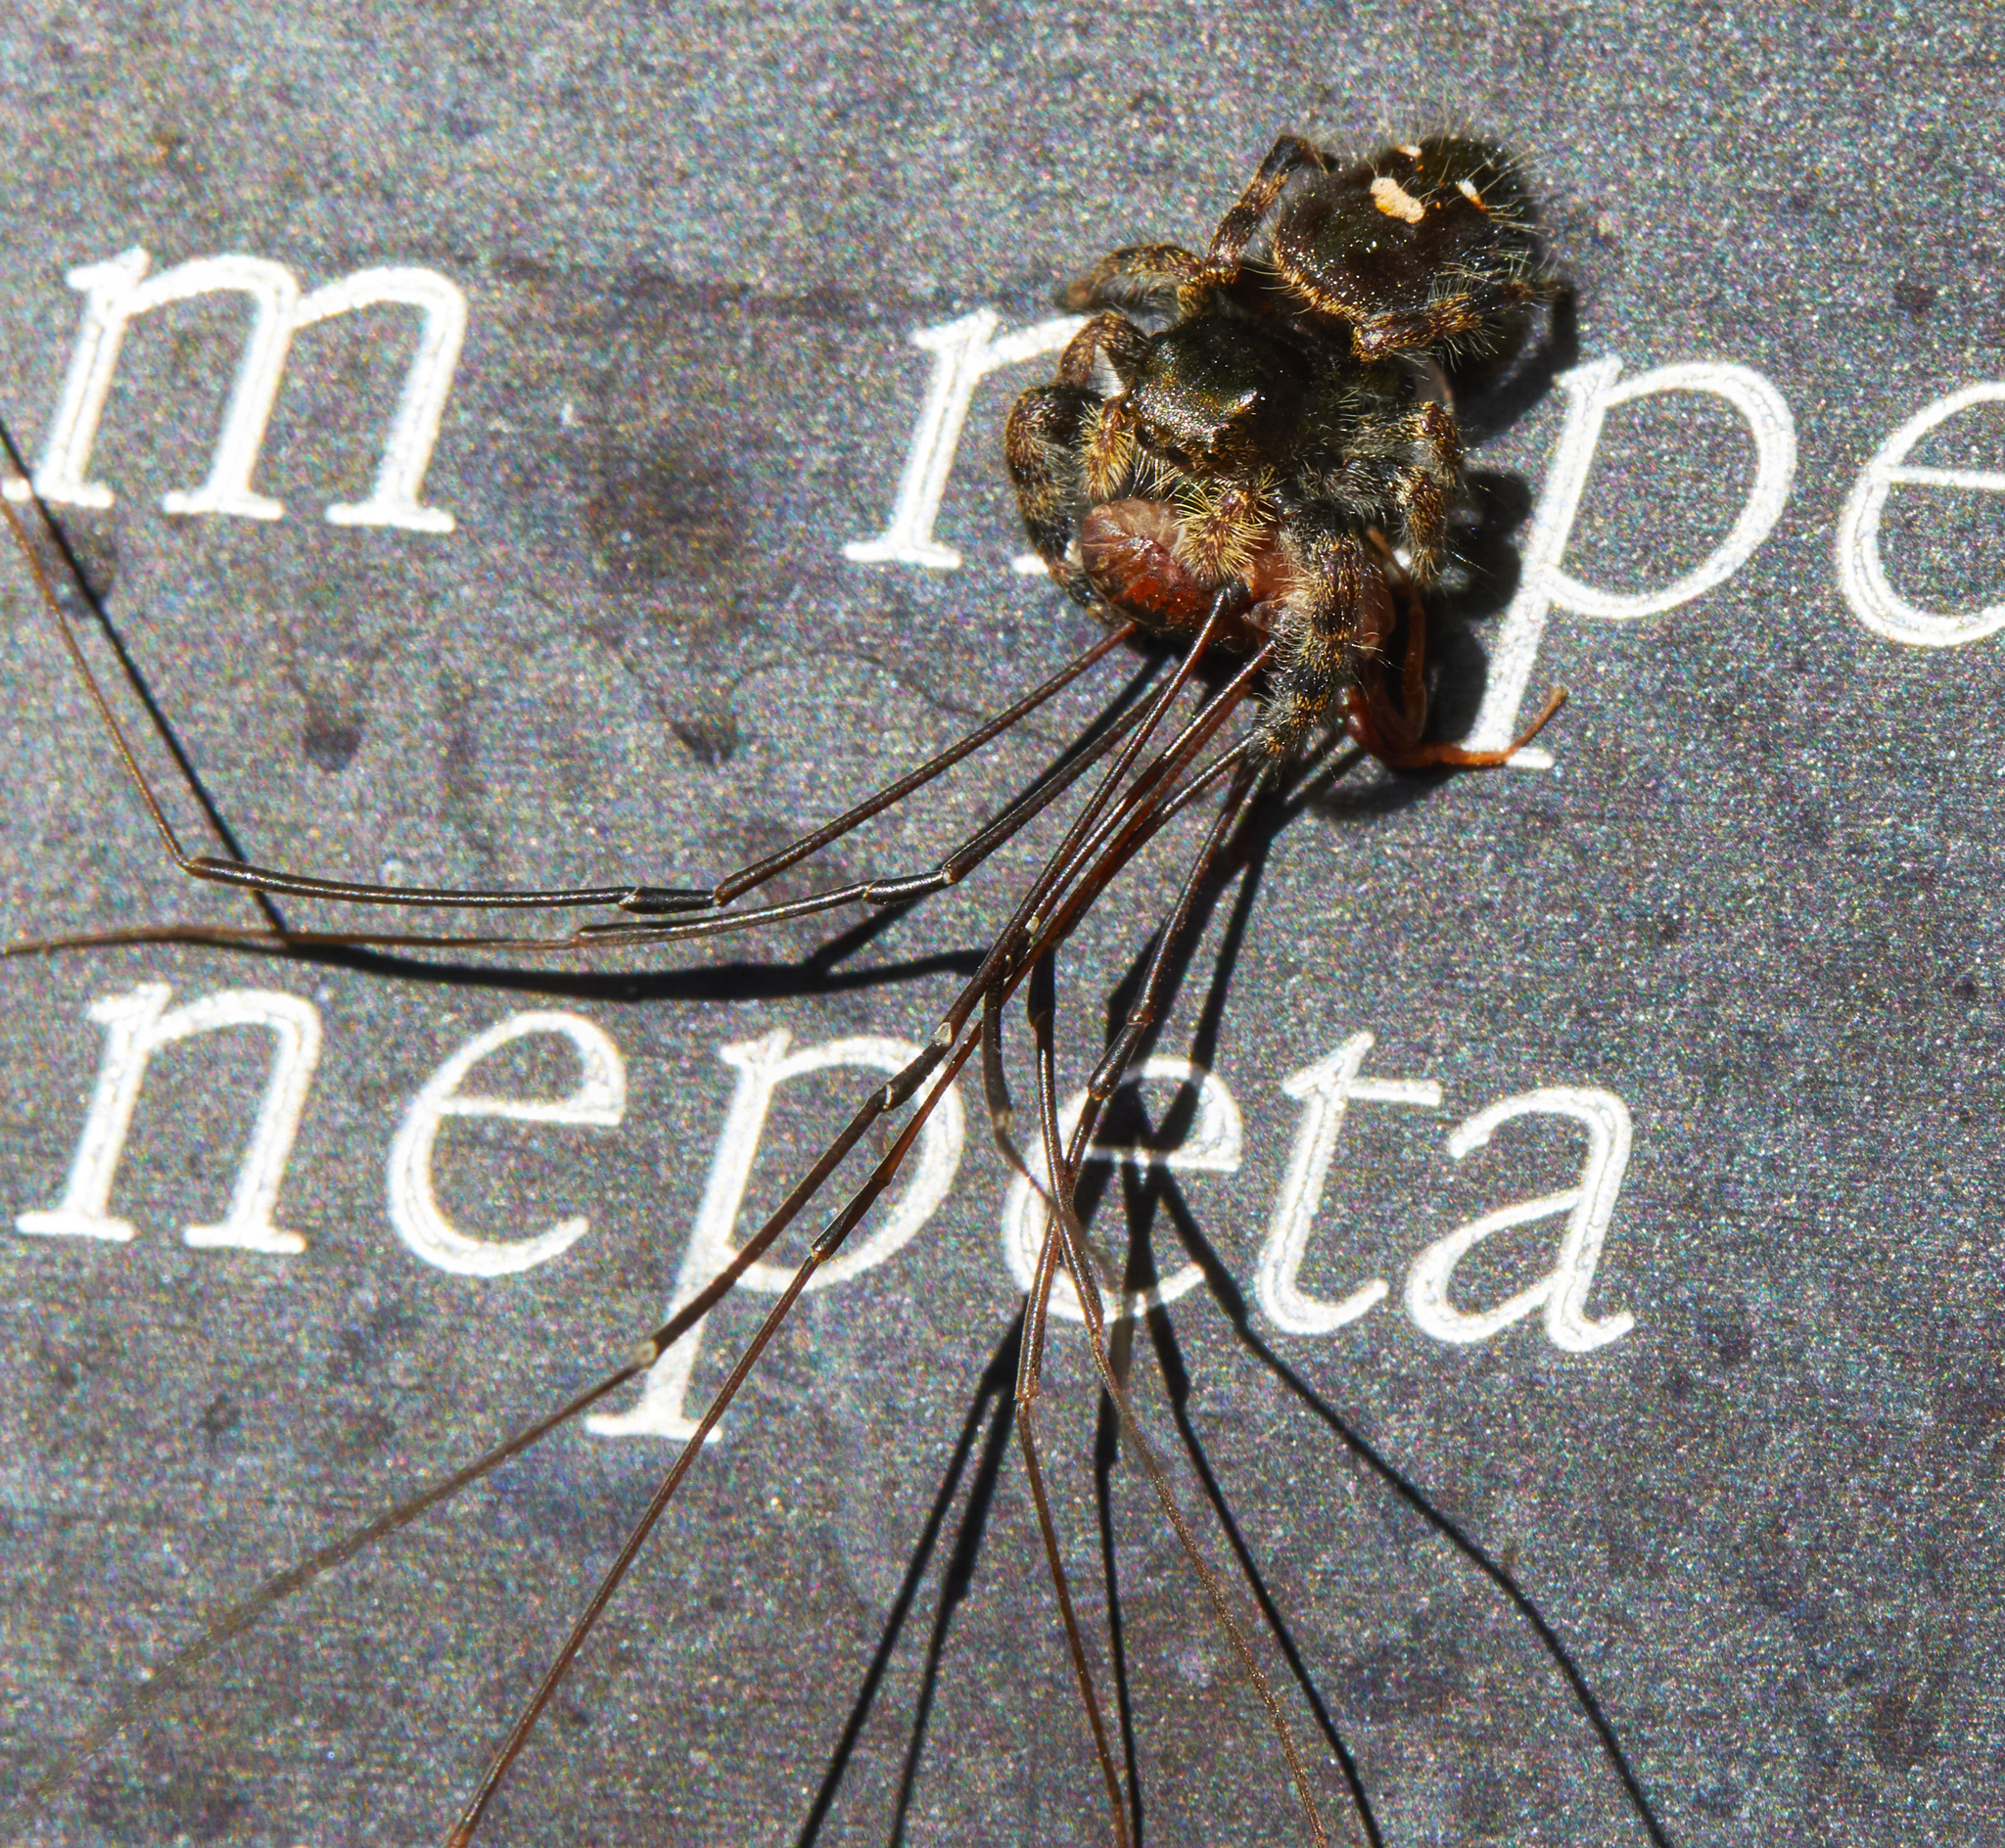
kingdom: Animalia
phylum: Arthropoda
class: Arachnida
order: Araneae
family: Salticidae
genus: Phidippus
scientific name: Phidippus audax
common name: Bold jumper
